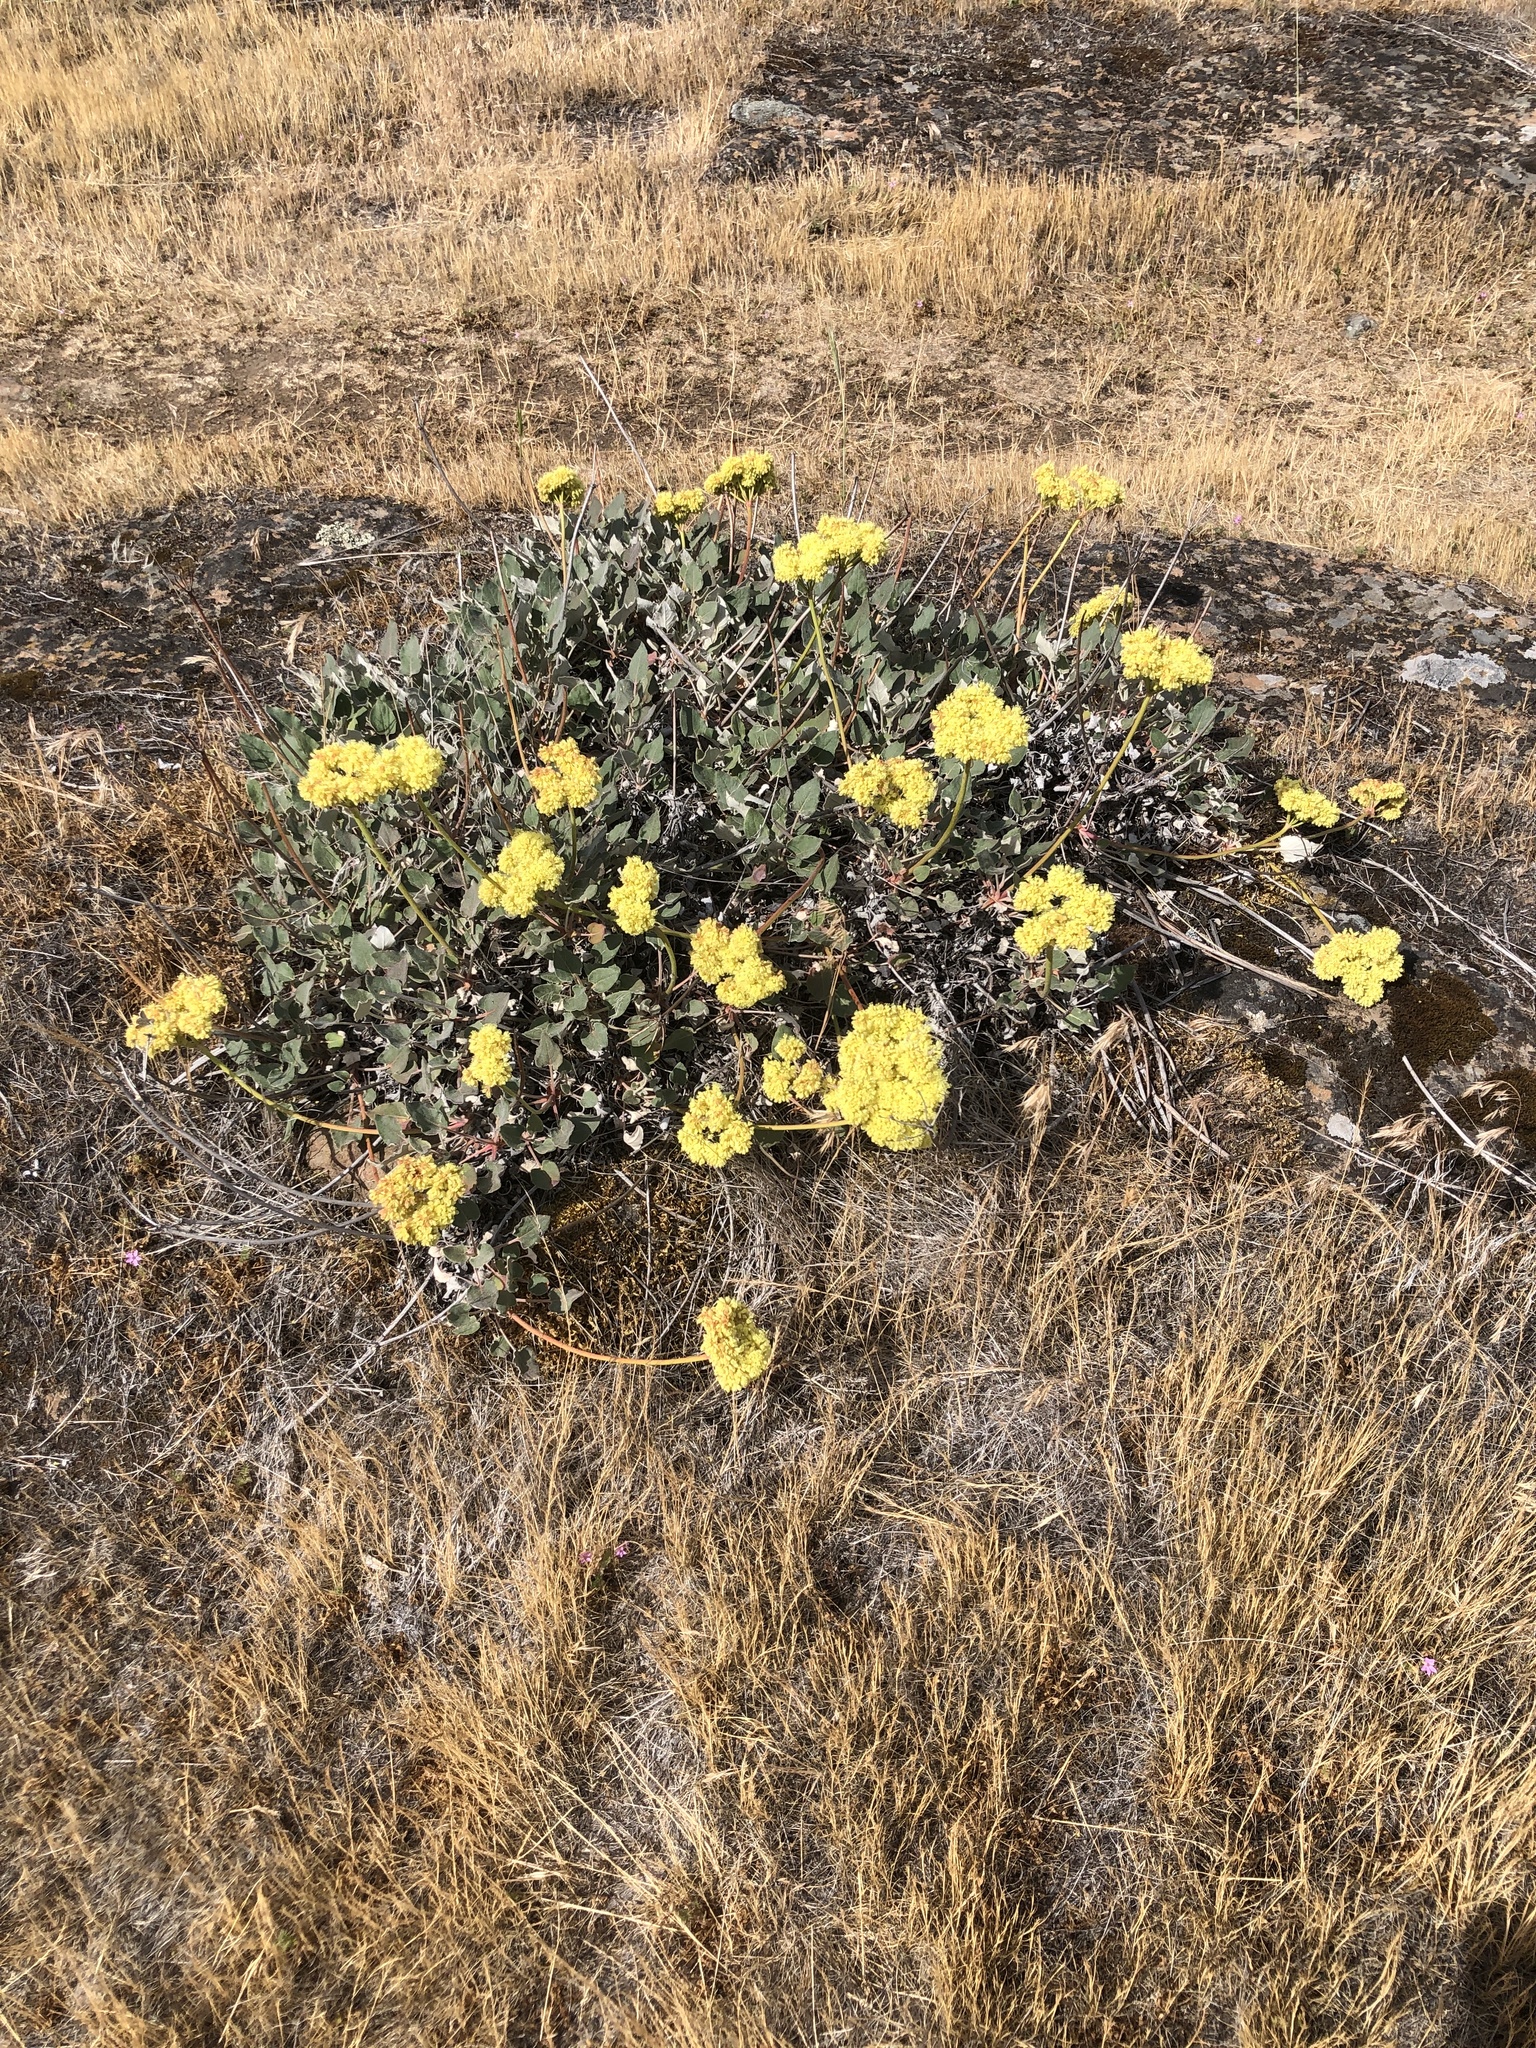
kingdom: Plantae
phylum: Tracheophyta
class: Magnoliopsida
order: Caryophyllales
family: Polygonaceae
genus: Eriogonum
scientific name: Eriogonum compositum
